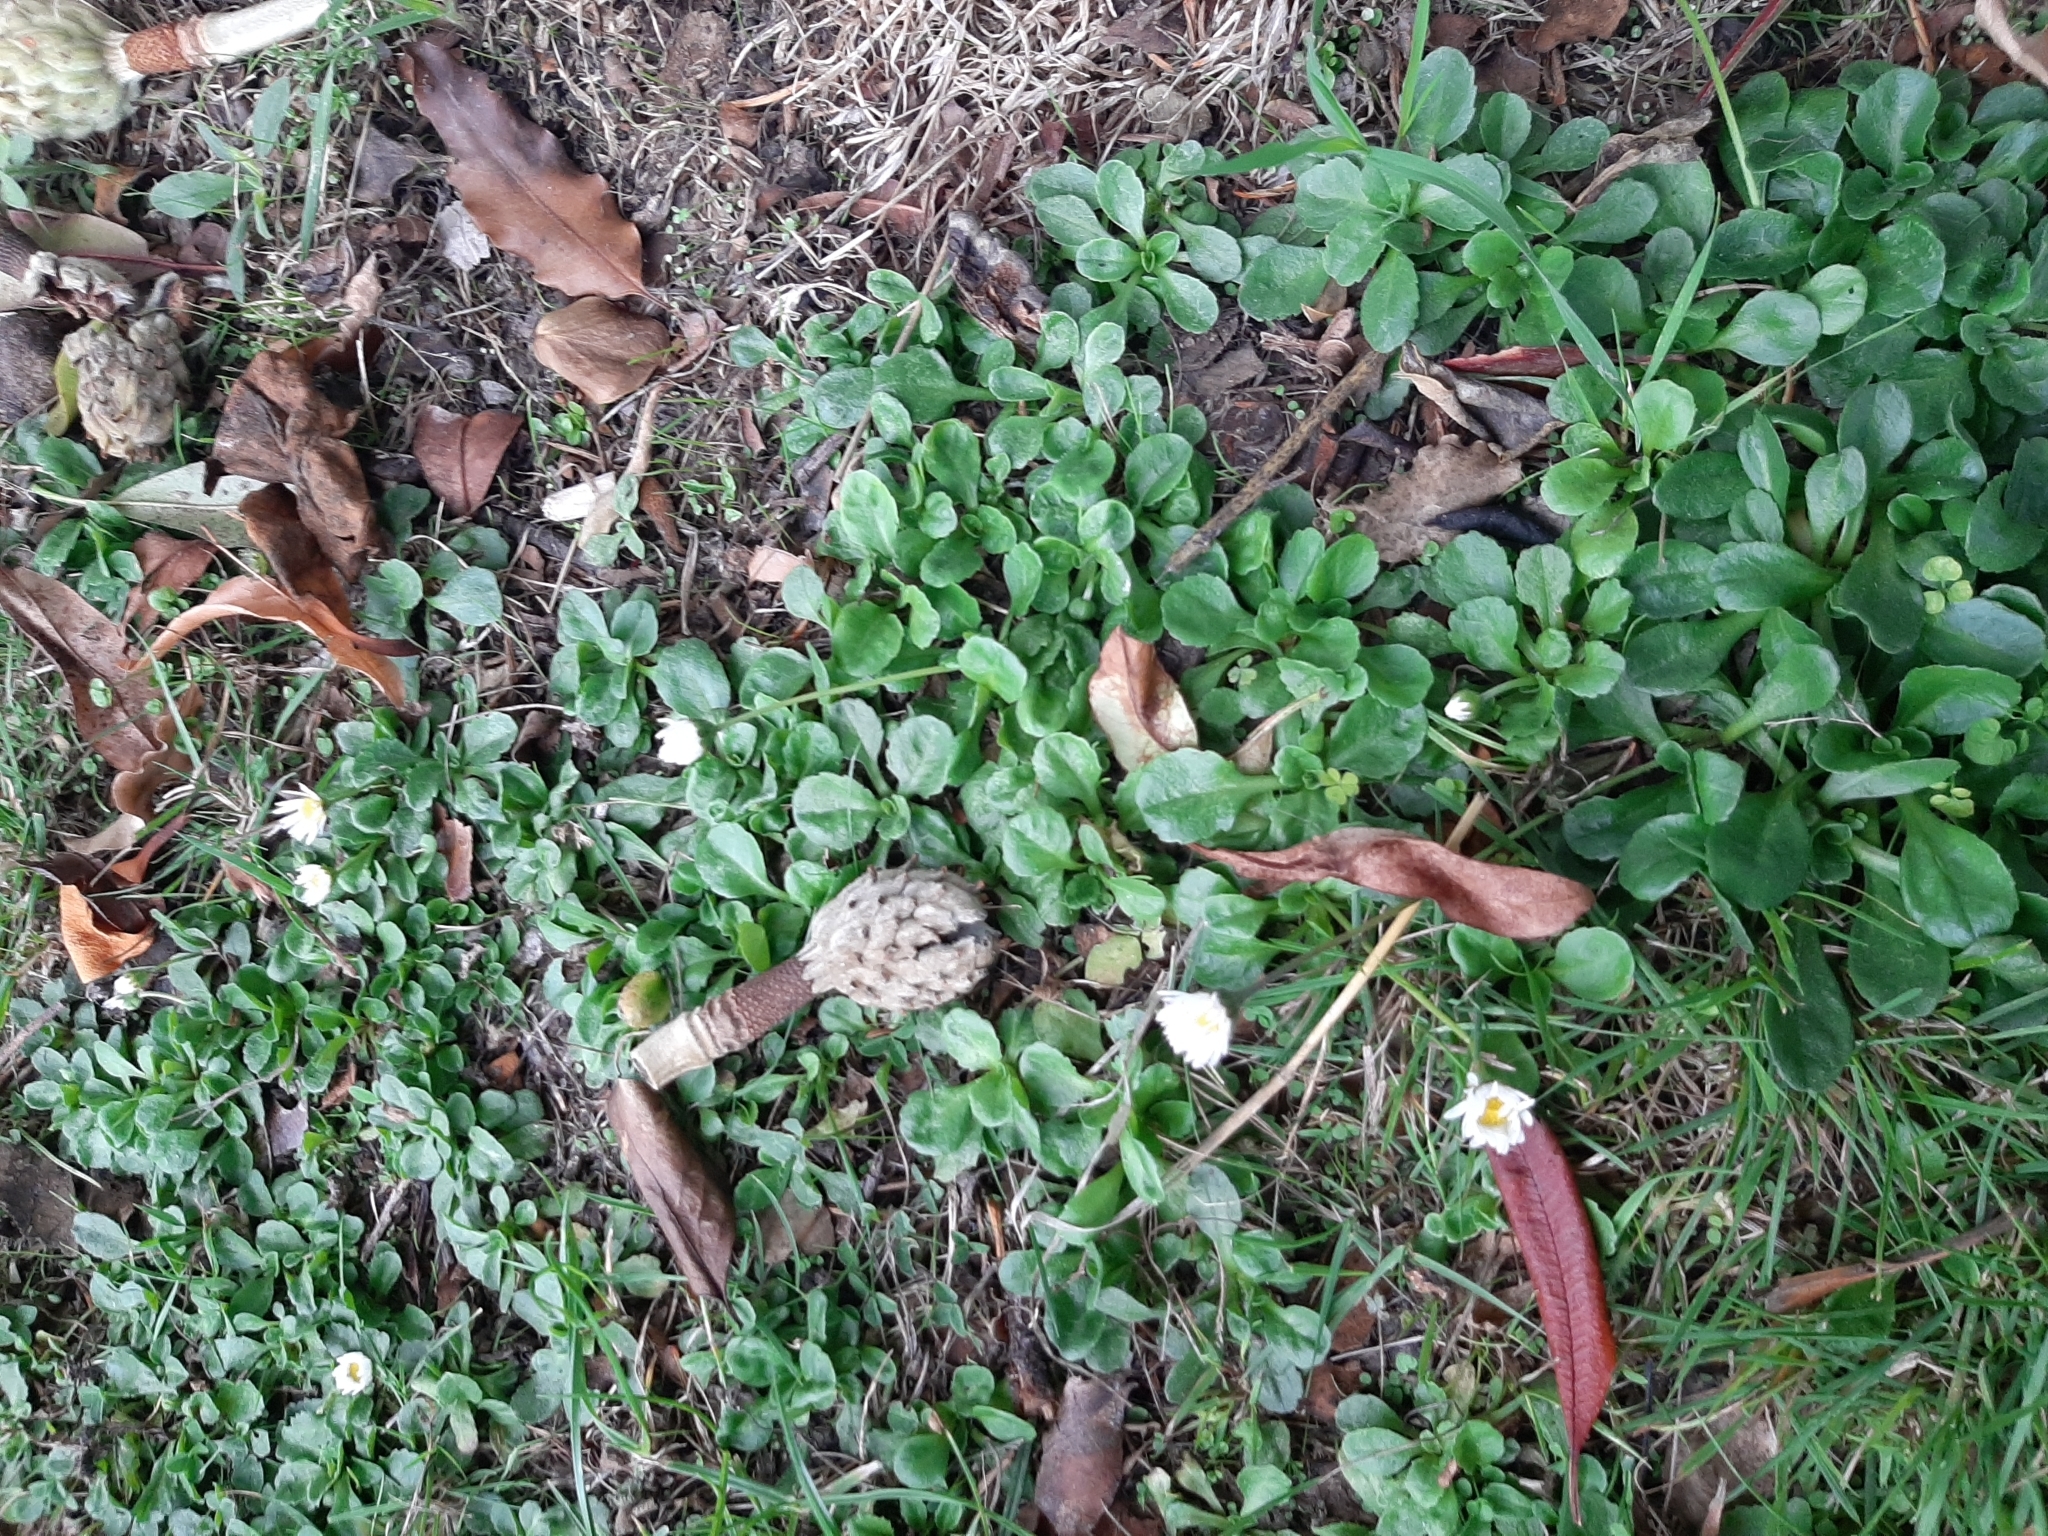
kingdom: Plantae
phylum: Tracheophyta
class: Magnoliopsida
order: Asterales
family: Asteraceae
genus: Bellis
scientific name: Bellis perennis
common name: Lawndaisy
